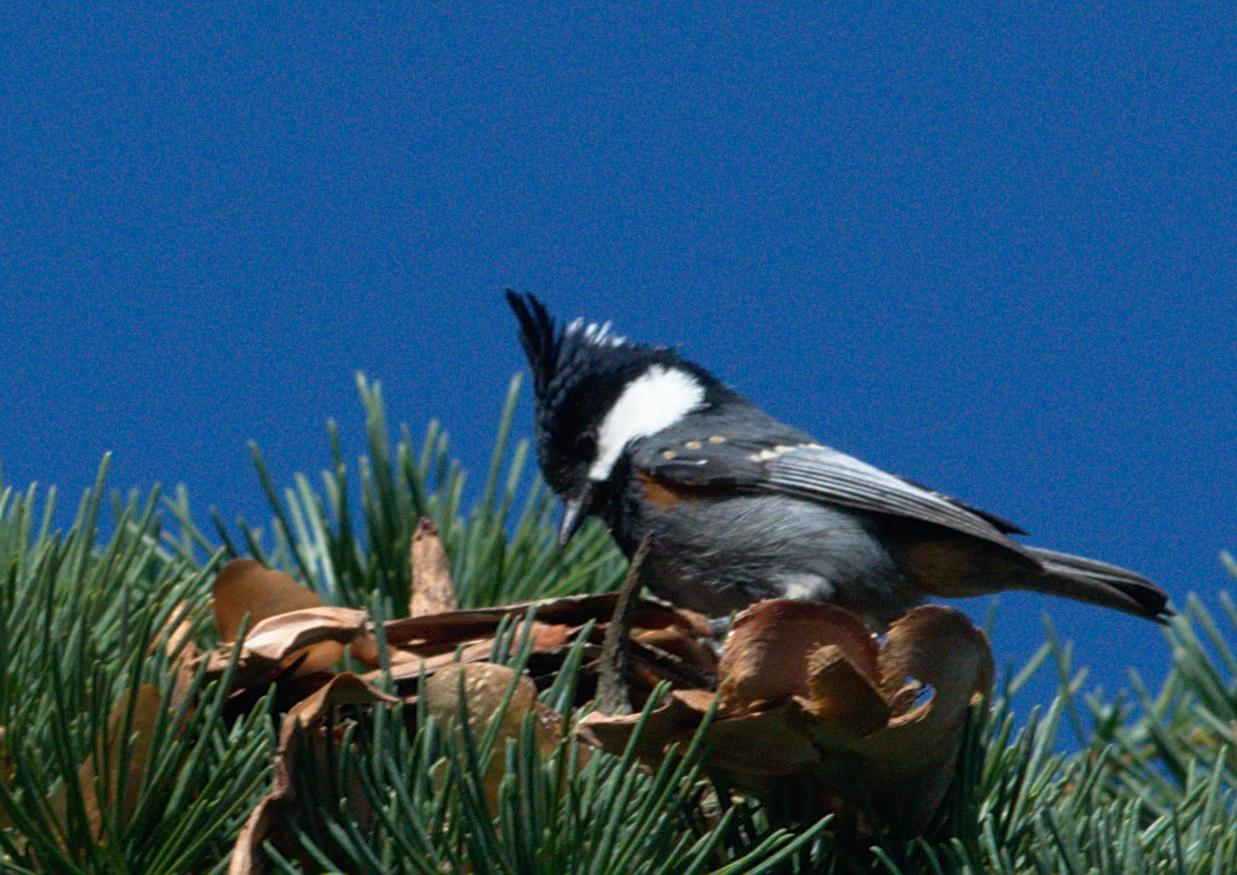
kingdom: Animalia
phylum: Chordata
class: Aves
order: Passeriformes
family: Paridae
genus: Periparus
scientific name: Periparus ater
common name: Coal tit
